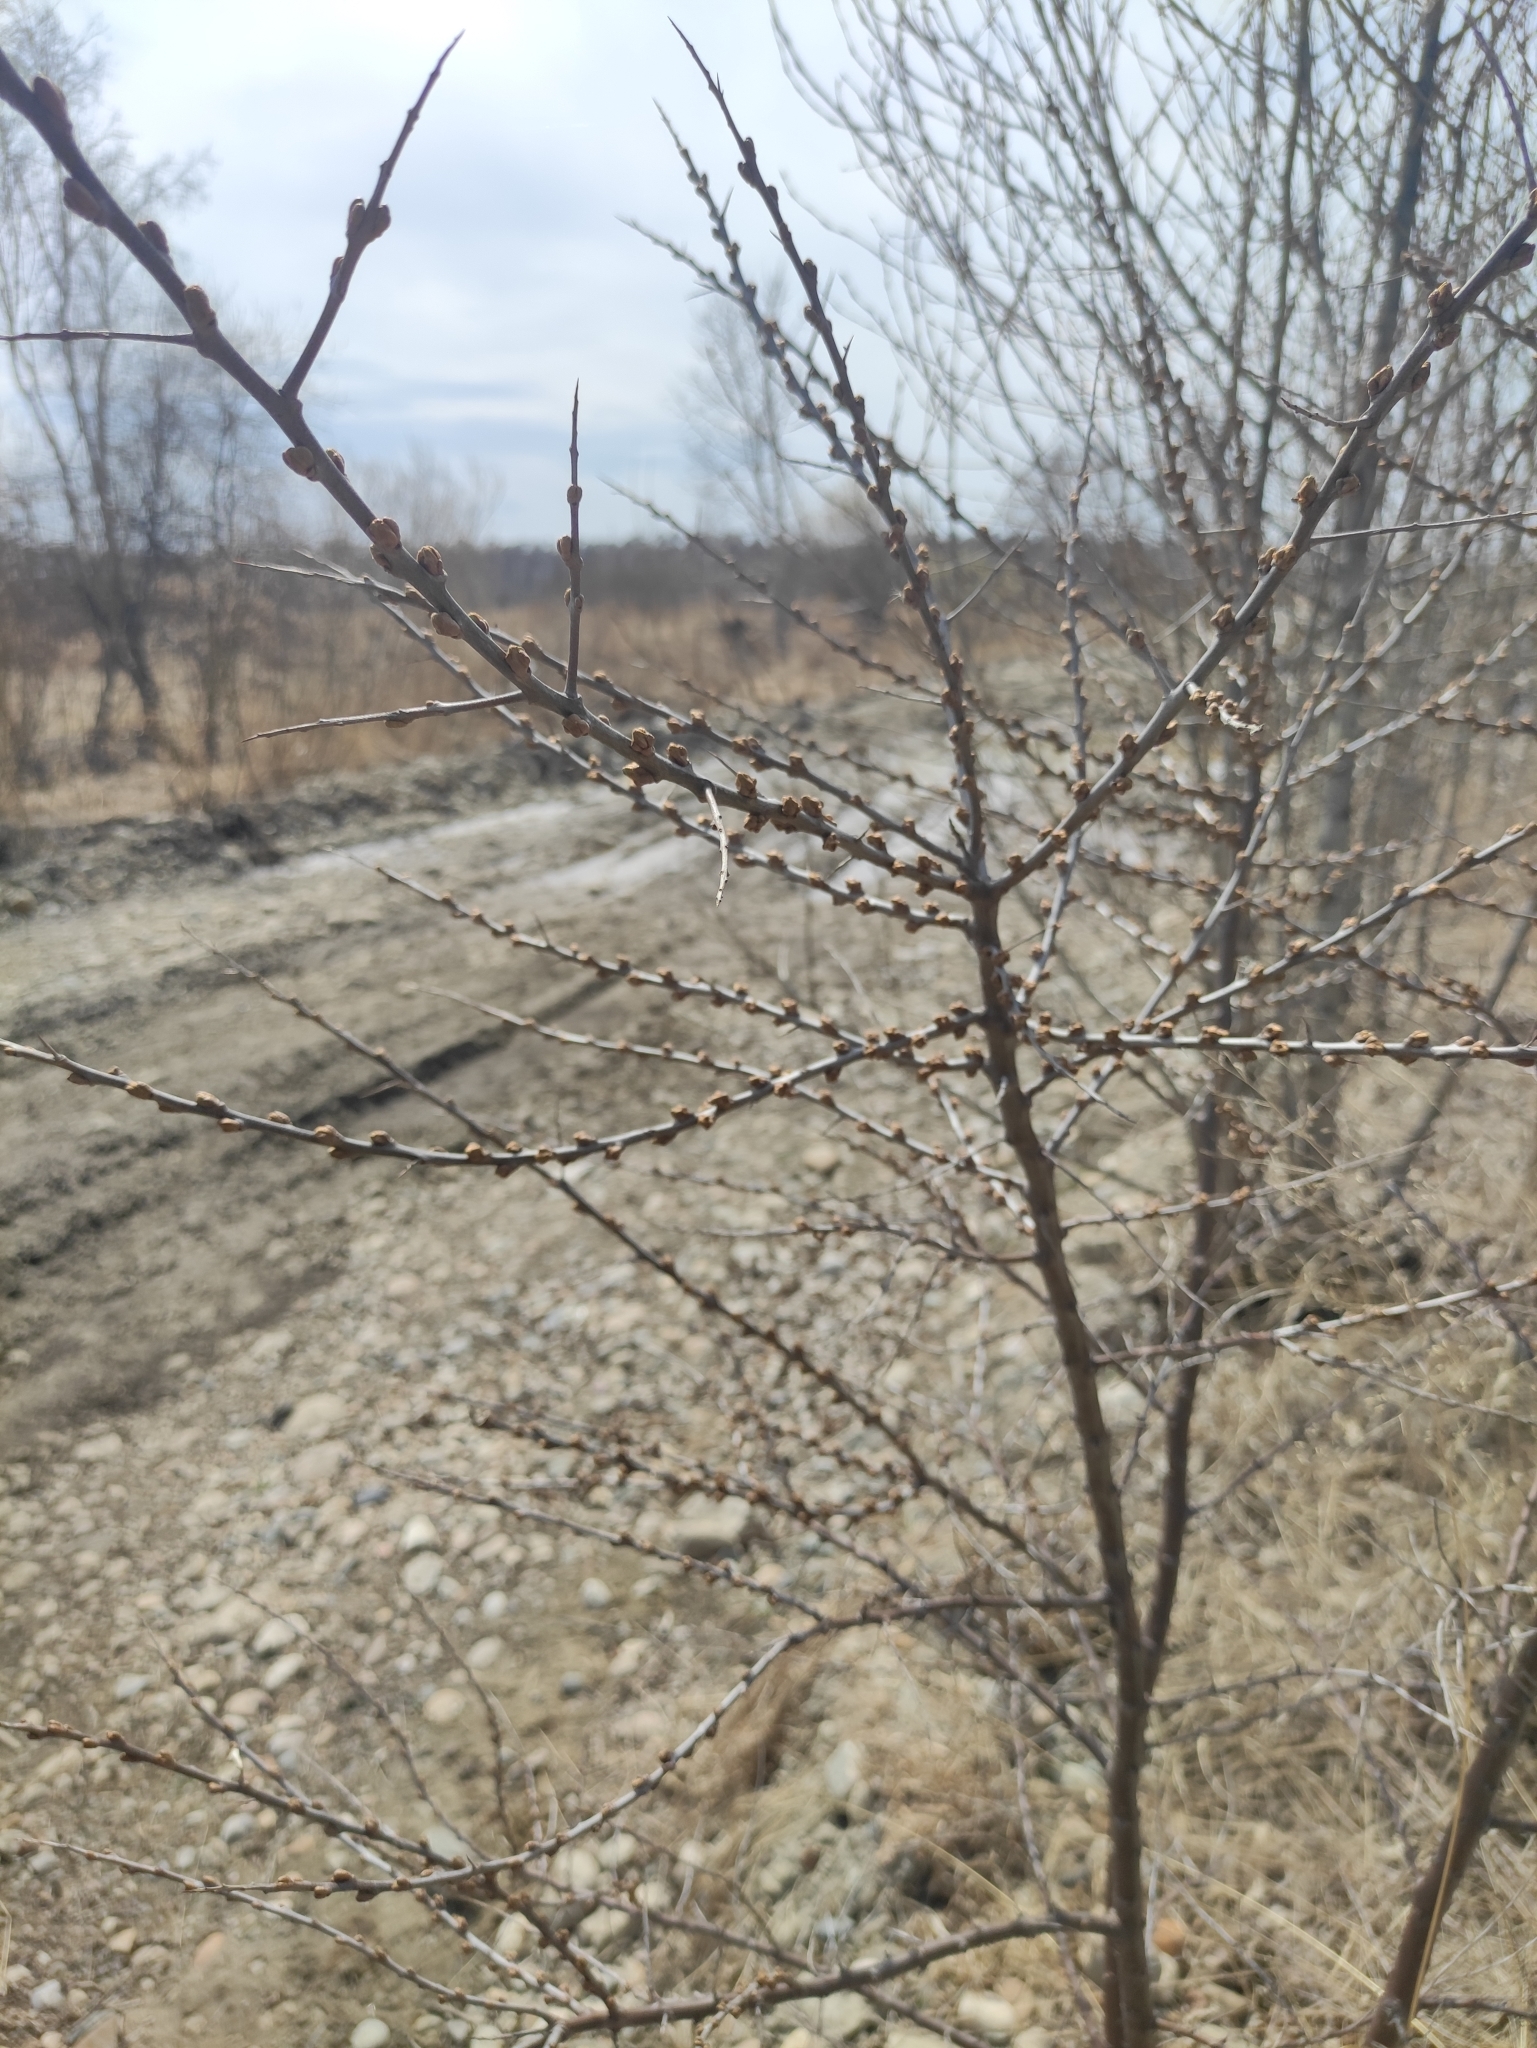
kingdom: Plantae
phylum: Tracheophyta
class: Magnoliopsida
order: Rosales
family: Elaeagnaceae
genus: Hippophae
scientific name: Hippophae rhamnoides
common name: Sea-buckthorn
